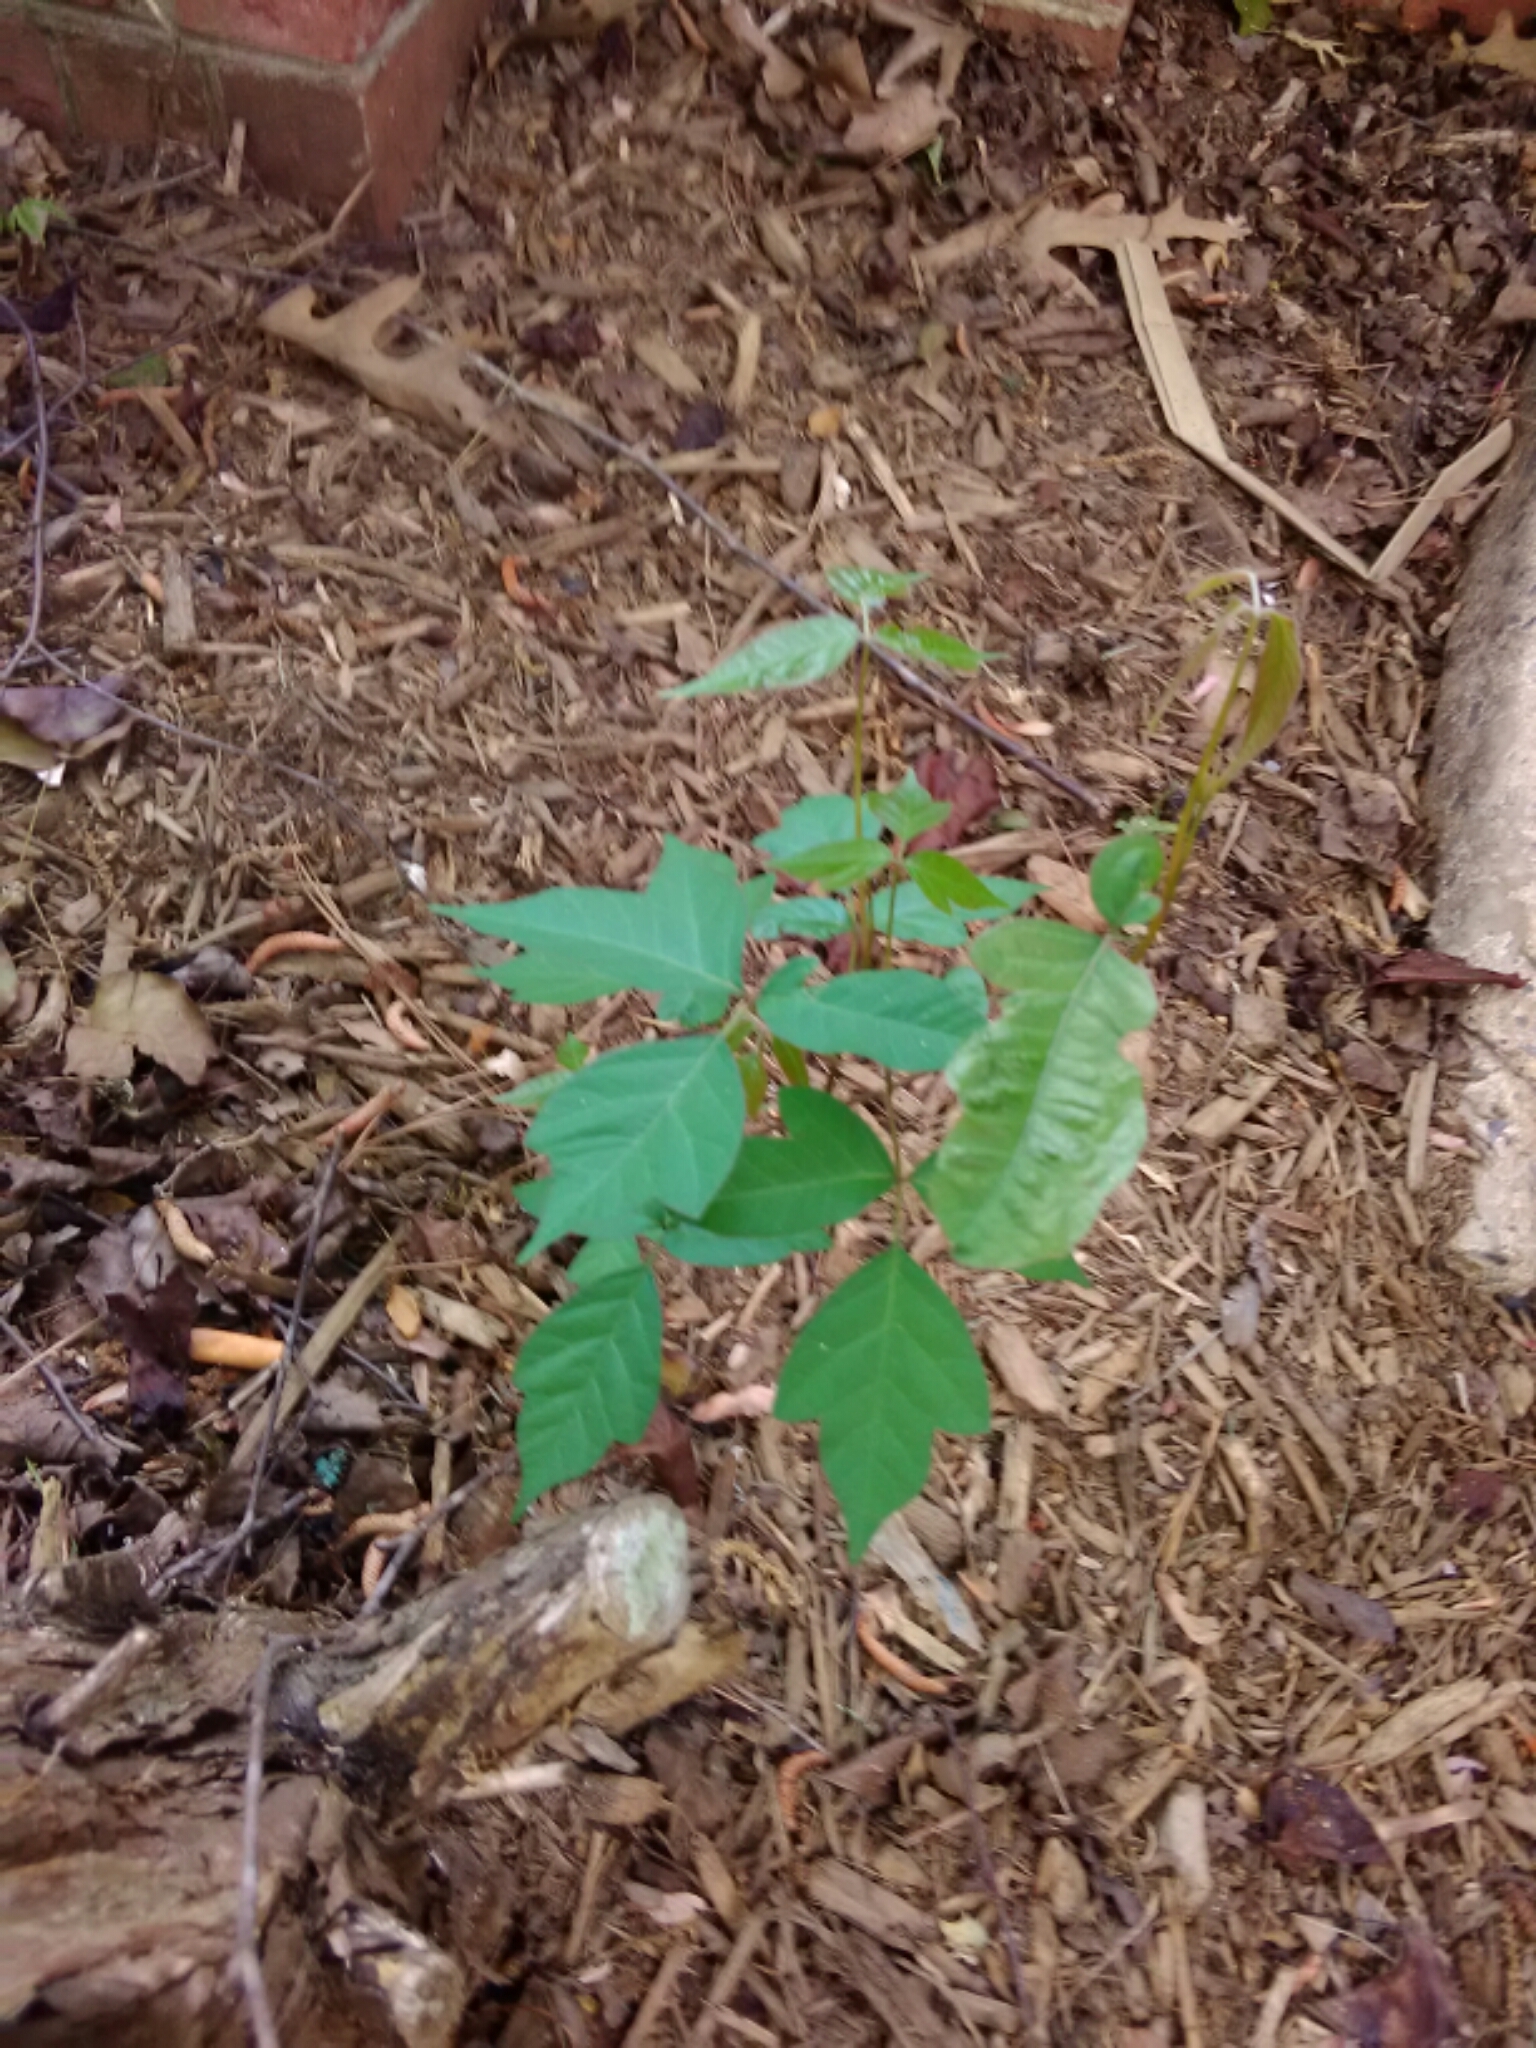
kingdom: Plantae
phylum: Tracheophyta
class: Magnoliopsida
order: Sapindales
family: Anacardiaceae
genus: Toxicodendron
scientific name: Toxicodendron radicans
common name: Poison ivy
